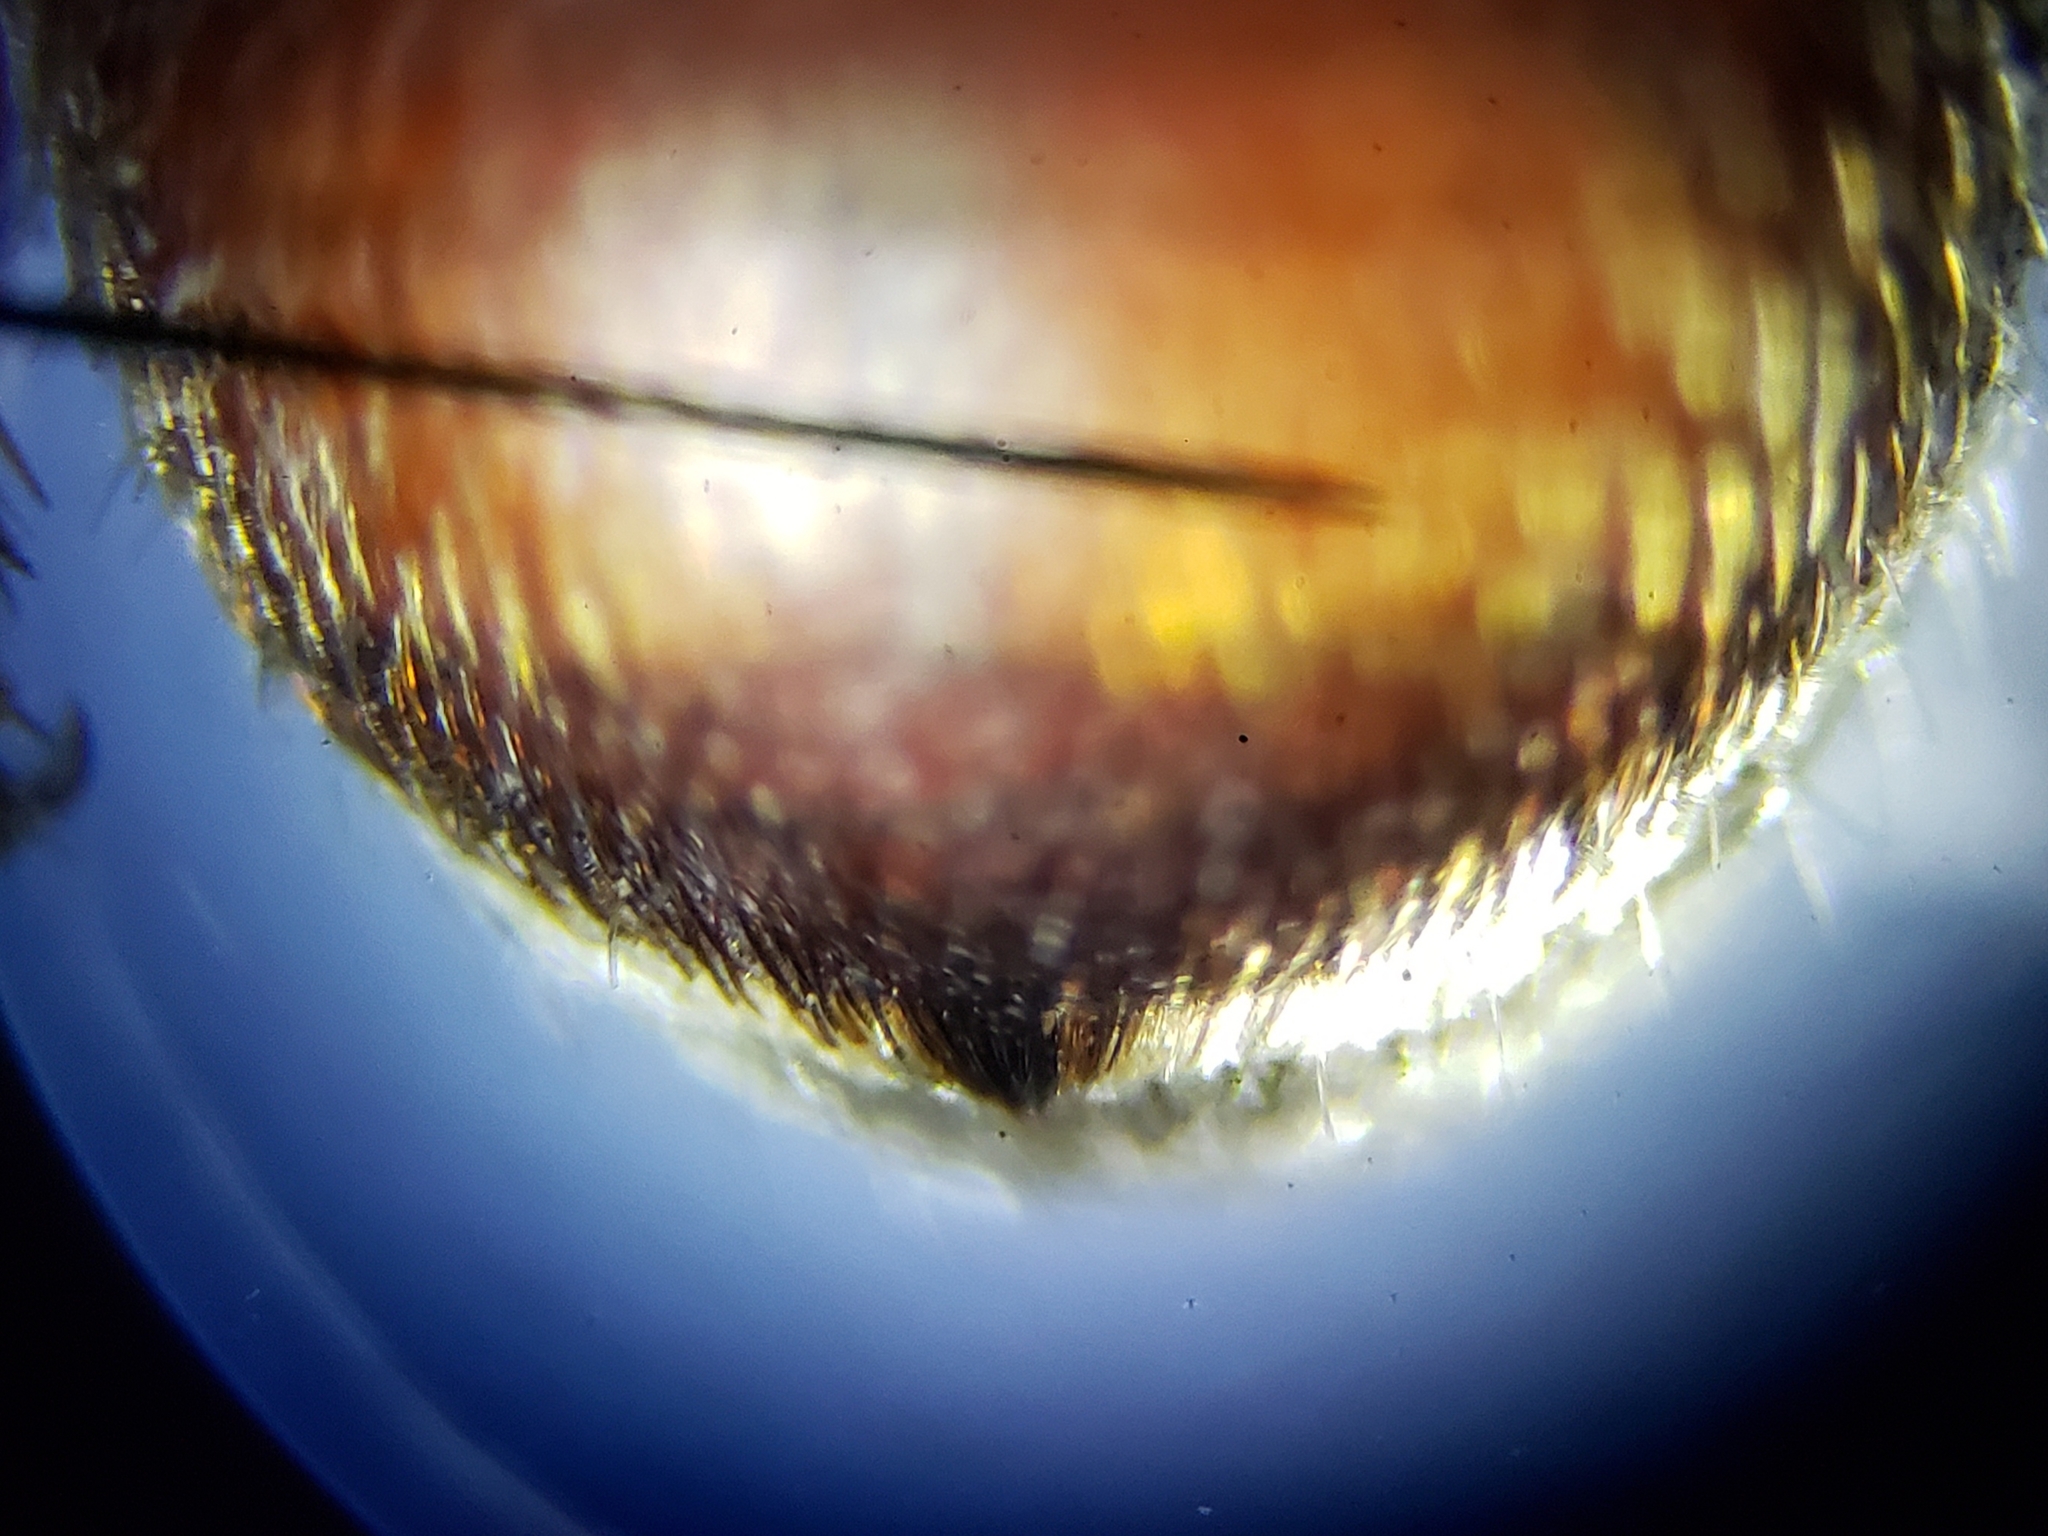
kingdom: Animalia
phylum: Arthropoda
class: Insecta
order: Hymenoptera
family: Mutillidae
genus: Dasymutilla
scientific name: Dasymutilla
